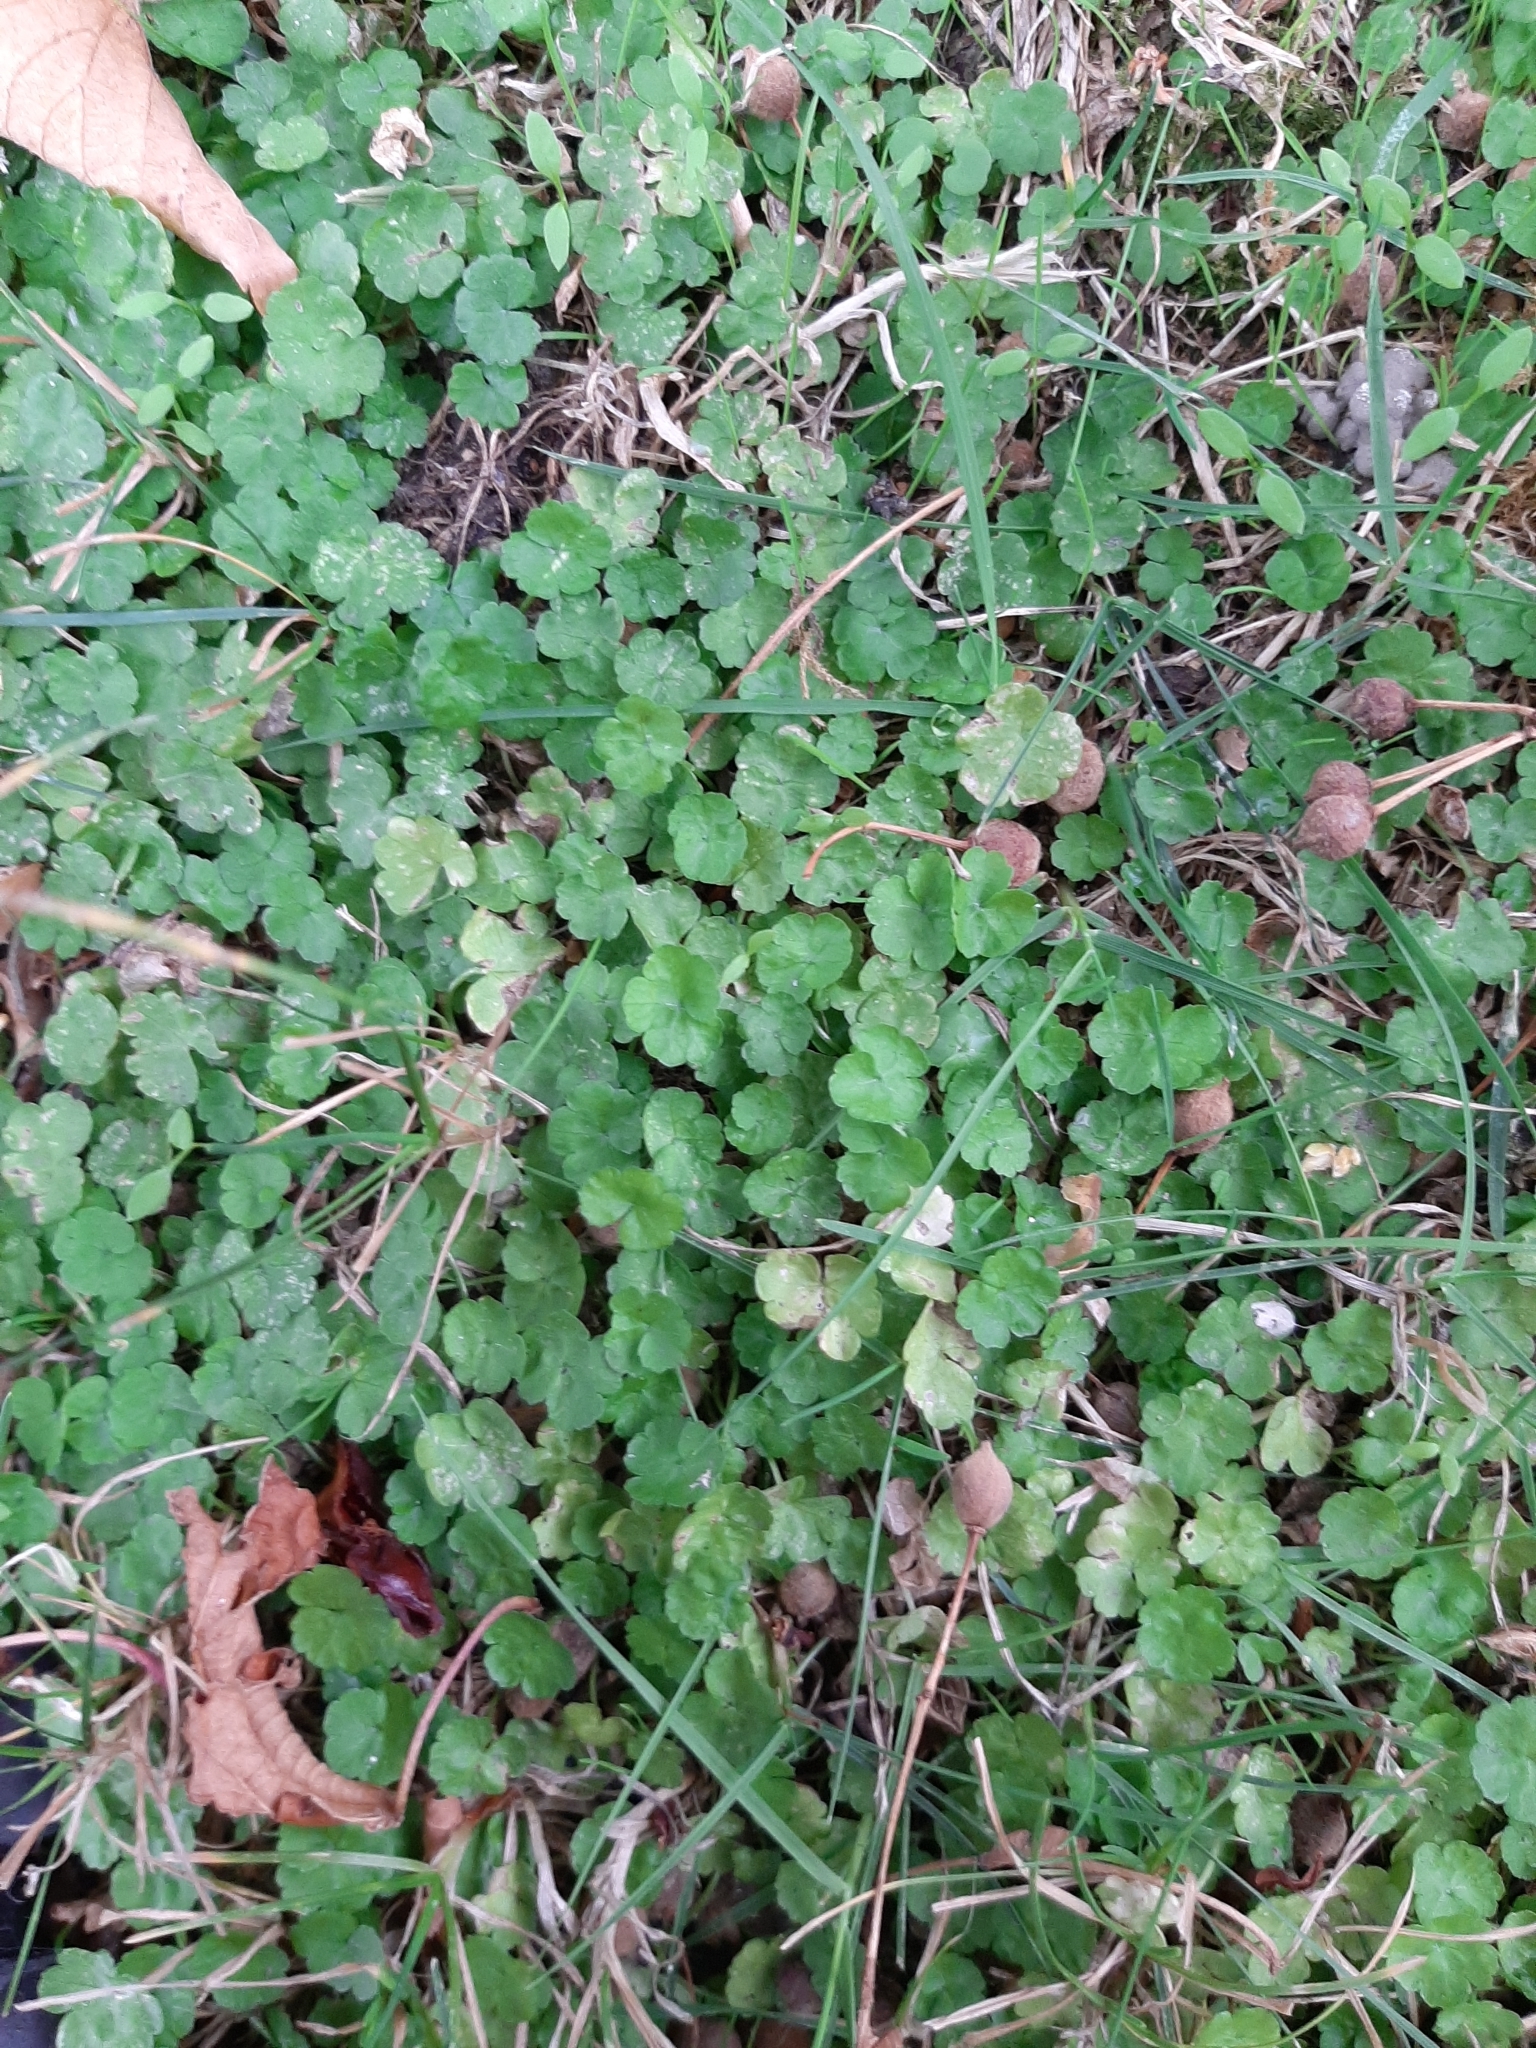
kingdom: Plantae
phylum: Tracheophyta
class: Magnoliopsida
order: Apiales
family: Araliaceae
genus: Hydrocotyle
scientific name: Hydrocotyle heteromeria
